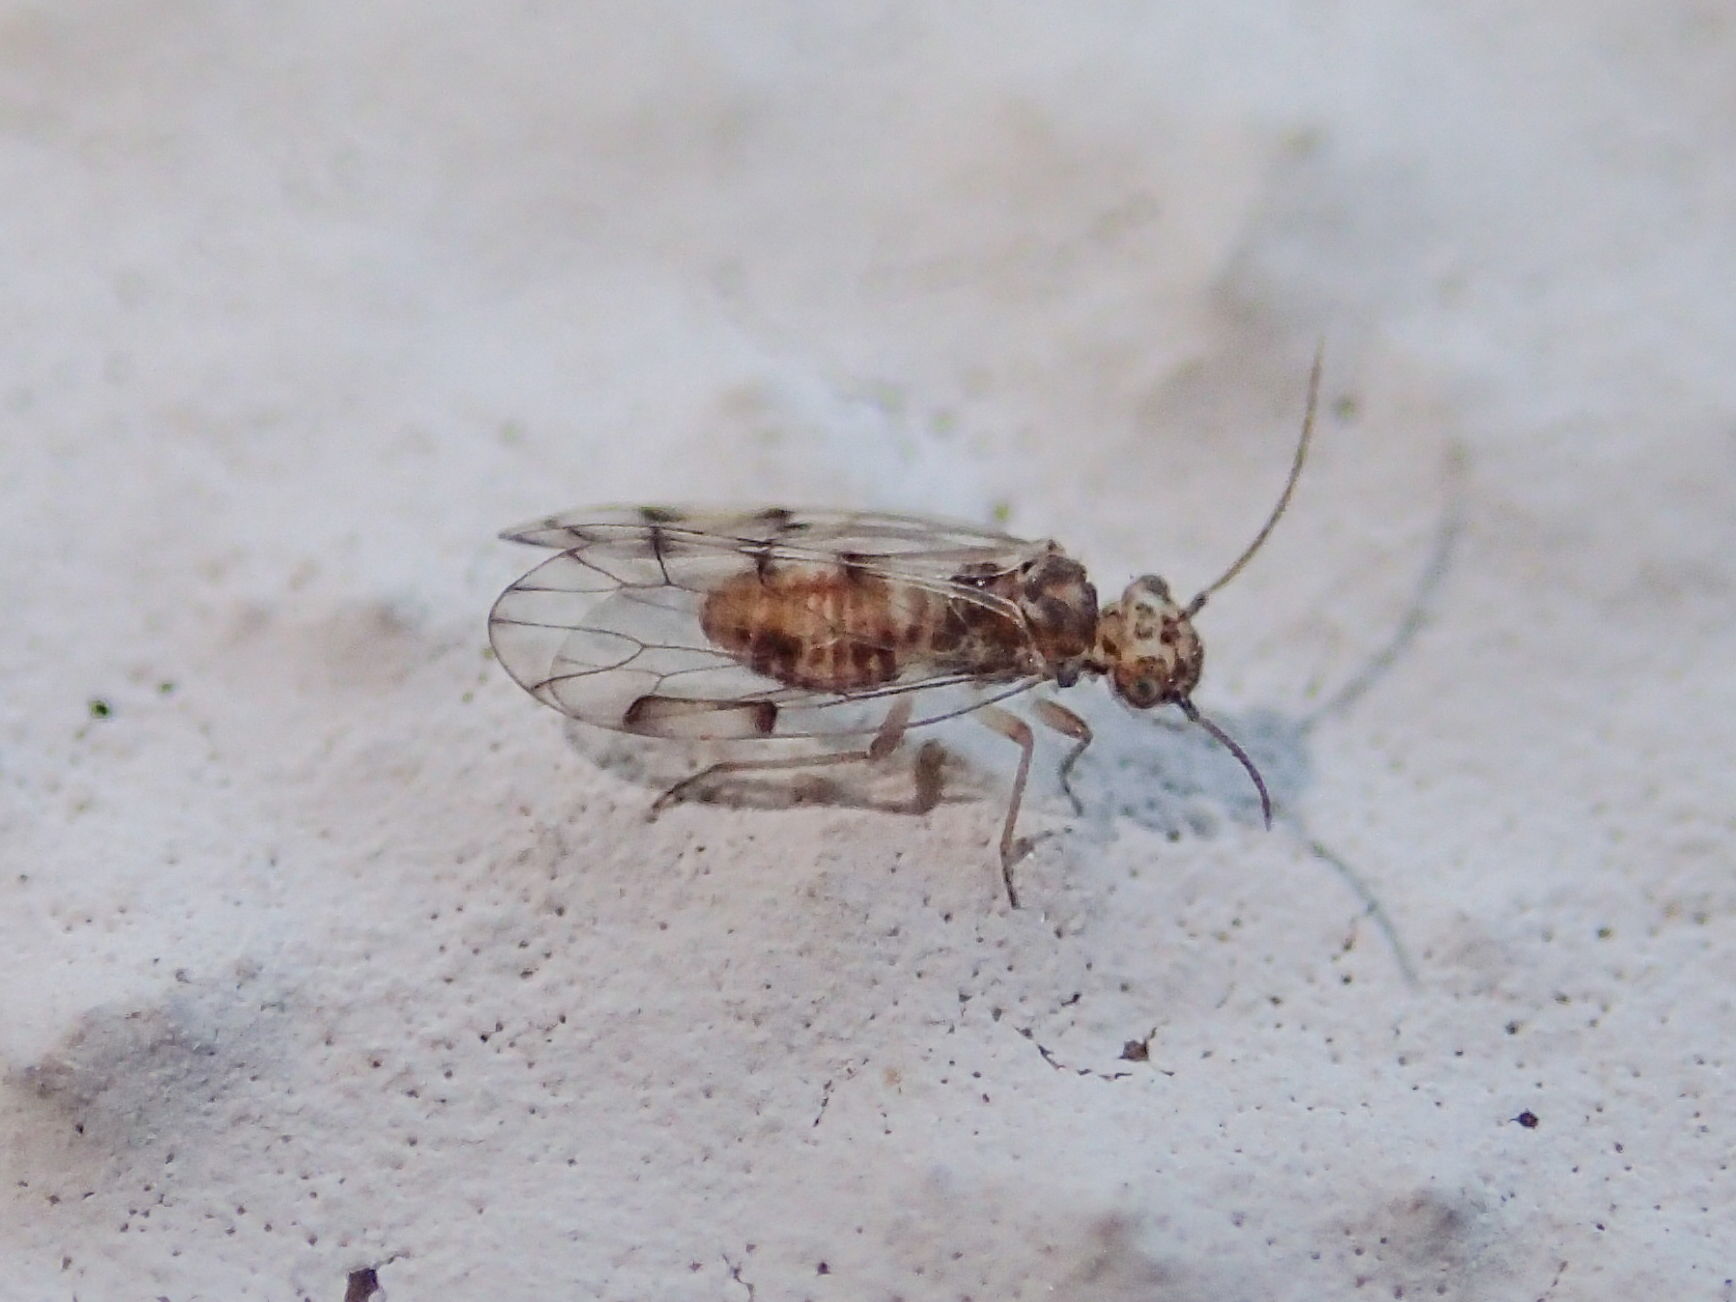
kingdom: Animalia
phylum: Arthropoda
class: Insecta
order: Psocodea
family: Ectopsocidae
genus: Ectopsocus
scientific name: Ectopsocus petersi
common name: Medium-sized bark louse
